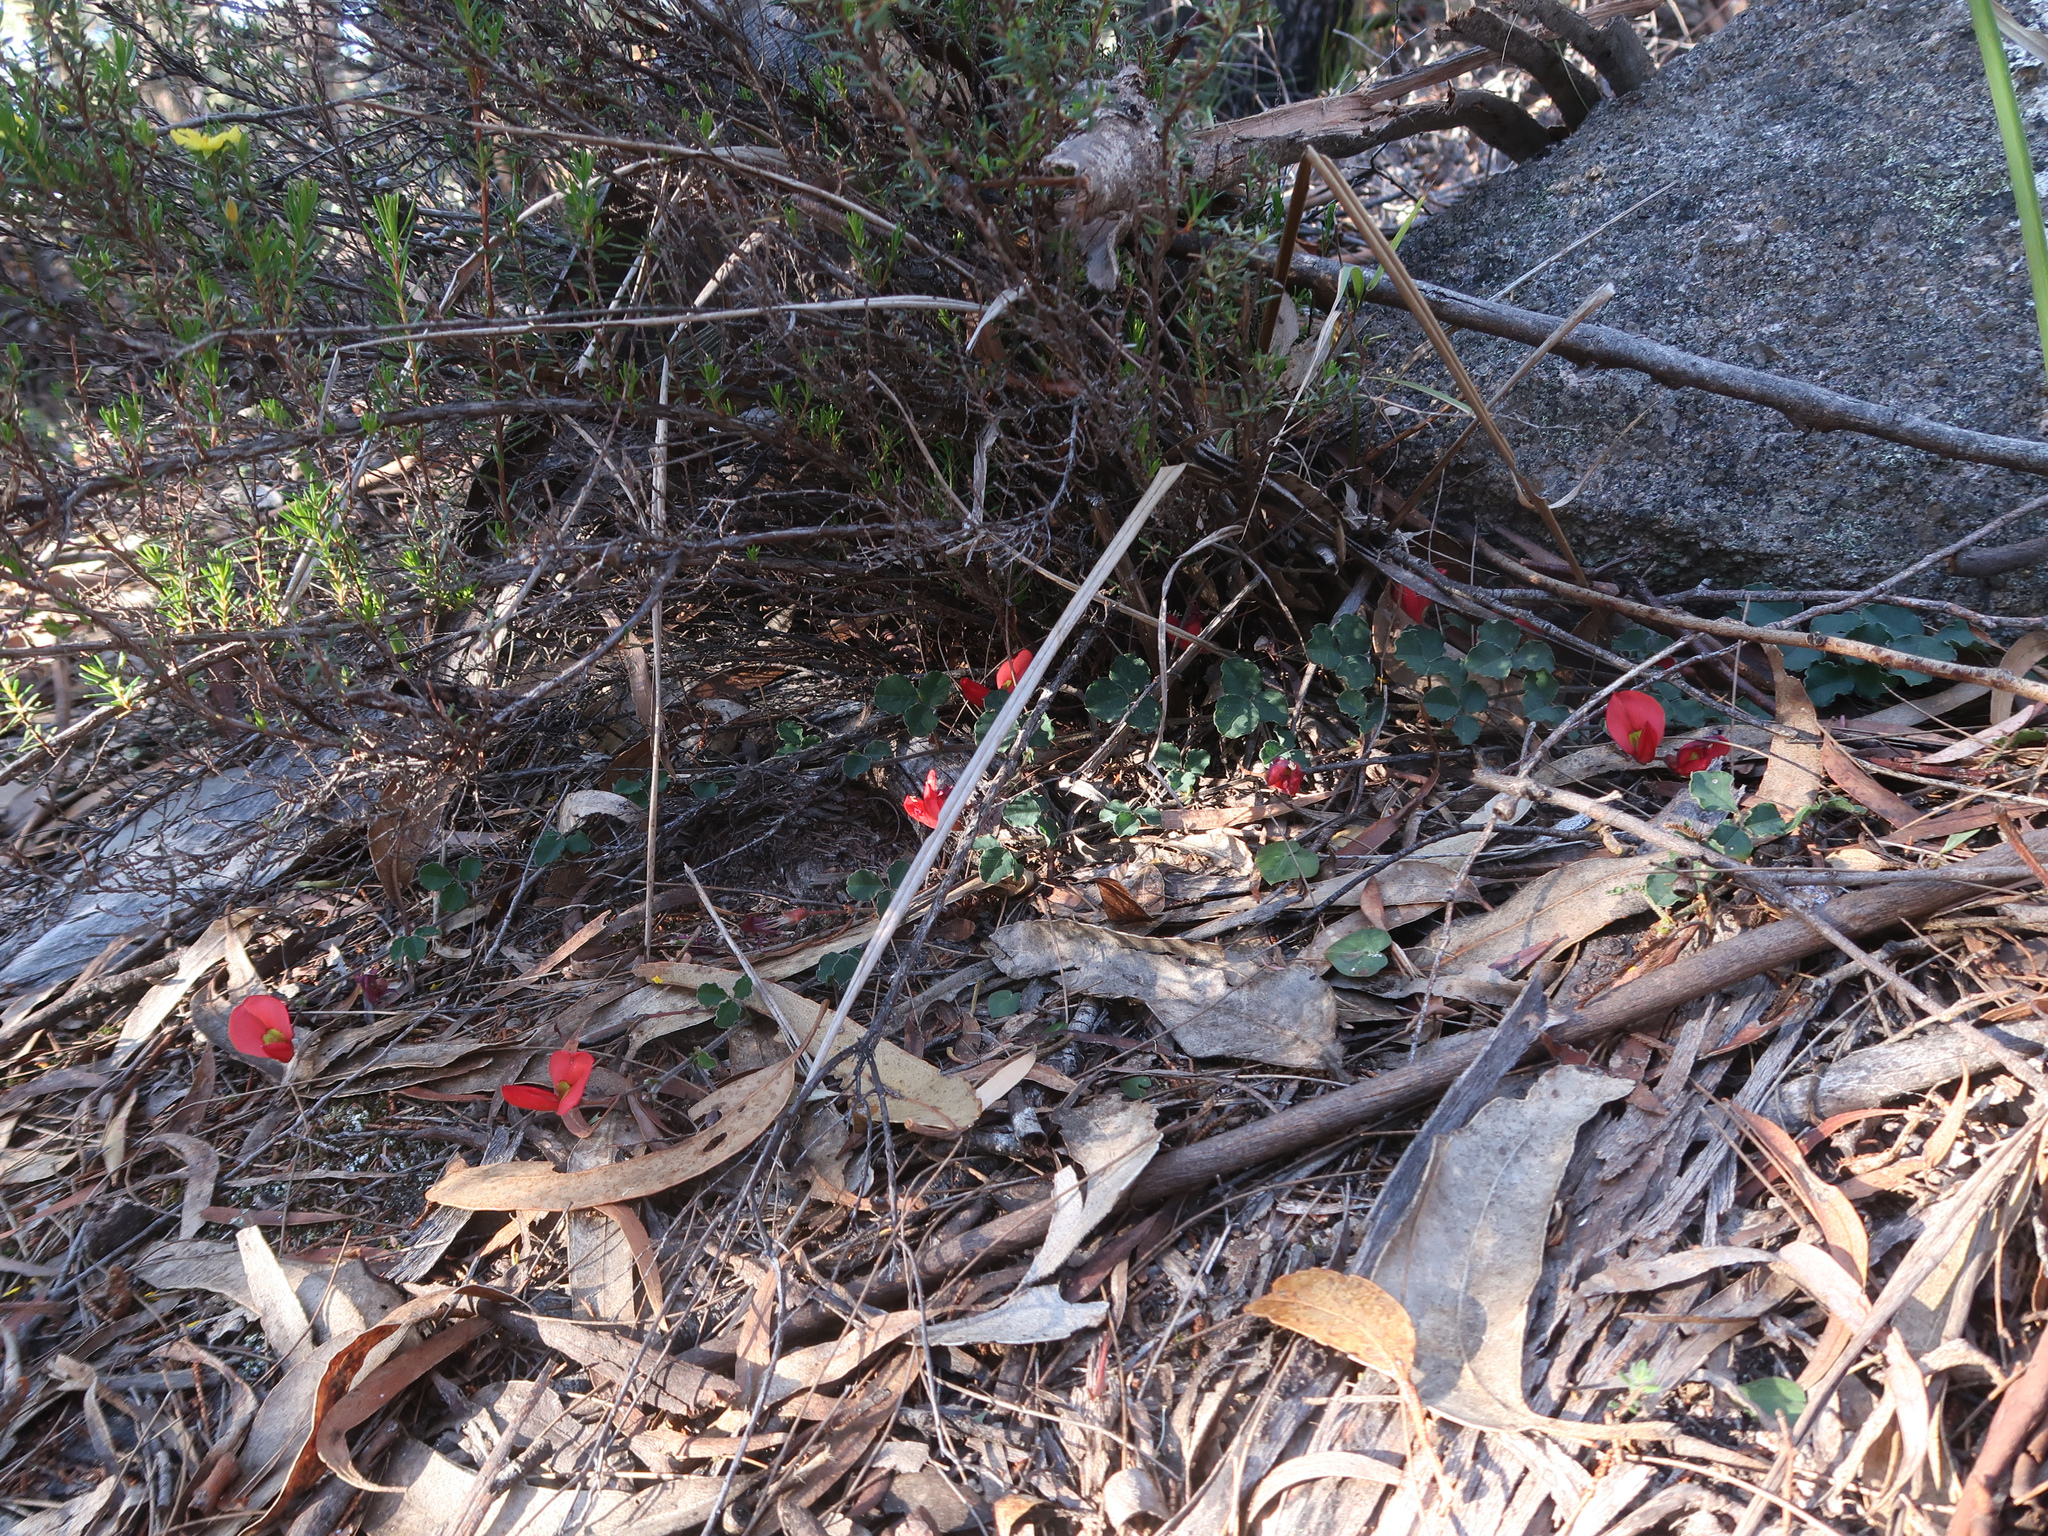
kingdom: Plantae
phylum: Tracheophyta
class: Magnoliopsida
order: Fabales
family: Fabaceae
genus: Kennedia
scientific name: Kennedia prostrata
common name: Running-postman
